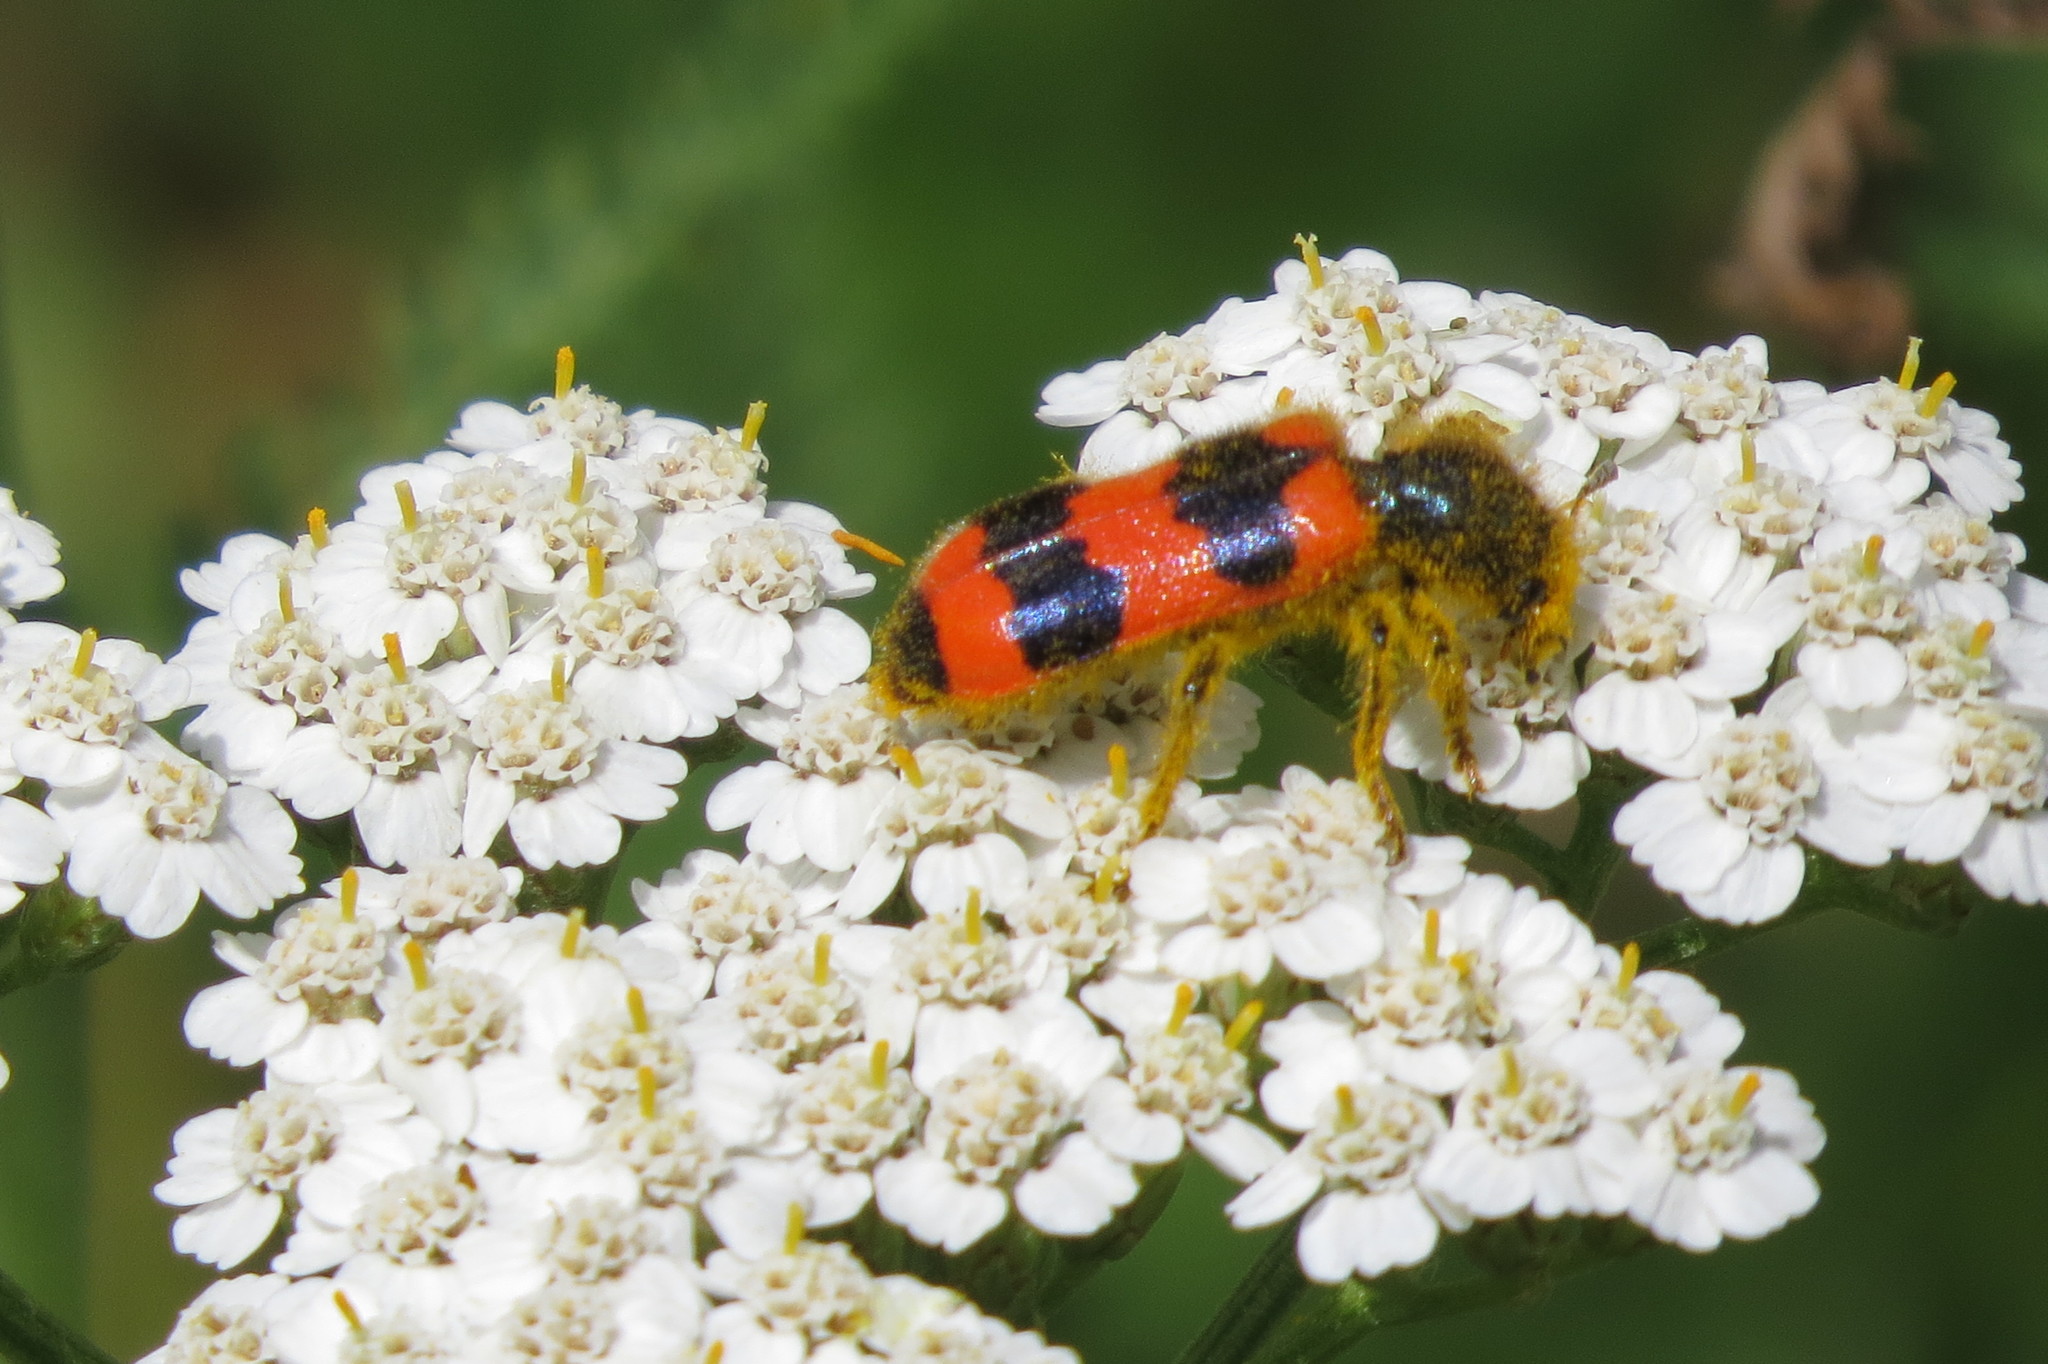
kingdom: Animalia
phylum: Arthropoda
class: Insecta
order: Coleoptera
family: Cleridae
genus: Trichodes
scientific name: Trichodes apiarius
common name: Bee-eating beetle
